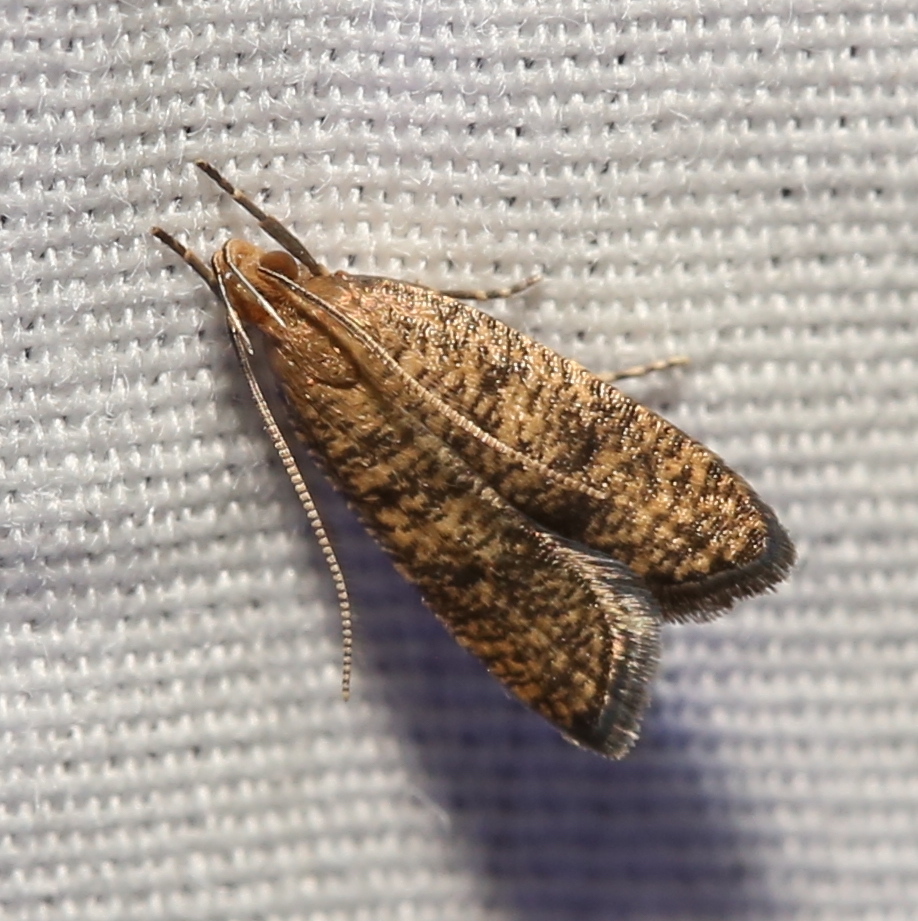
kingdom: Animalia
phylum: Arthropoda
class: Insecta
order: Lepidoptera
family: Depressariidae
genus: Psilocorsis
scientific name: Psilocorsis quercicella
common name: Oak leaftier moth
